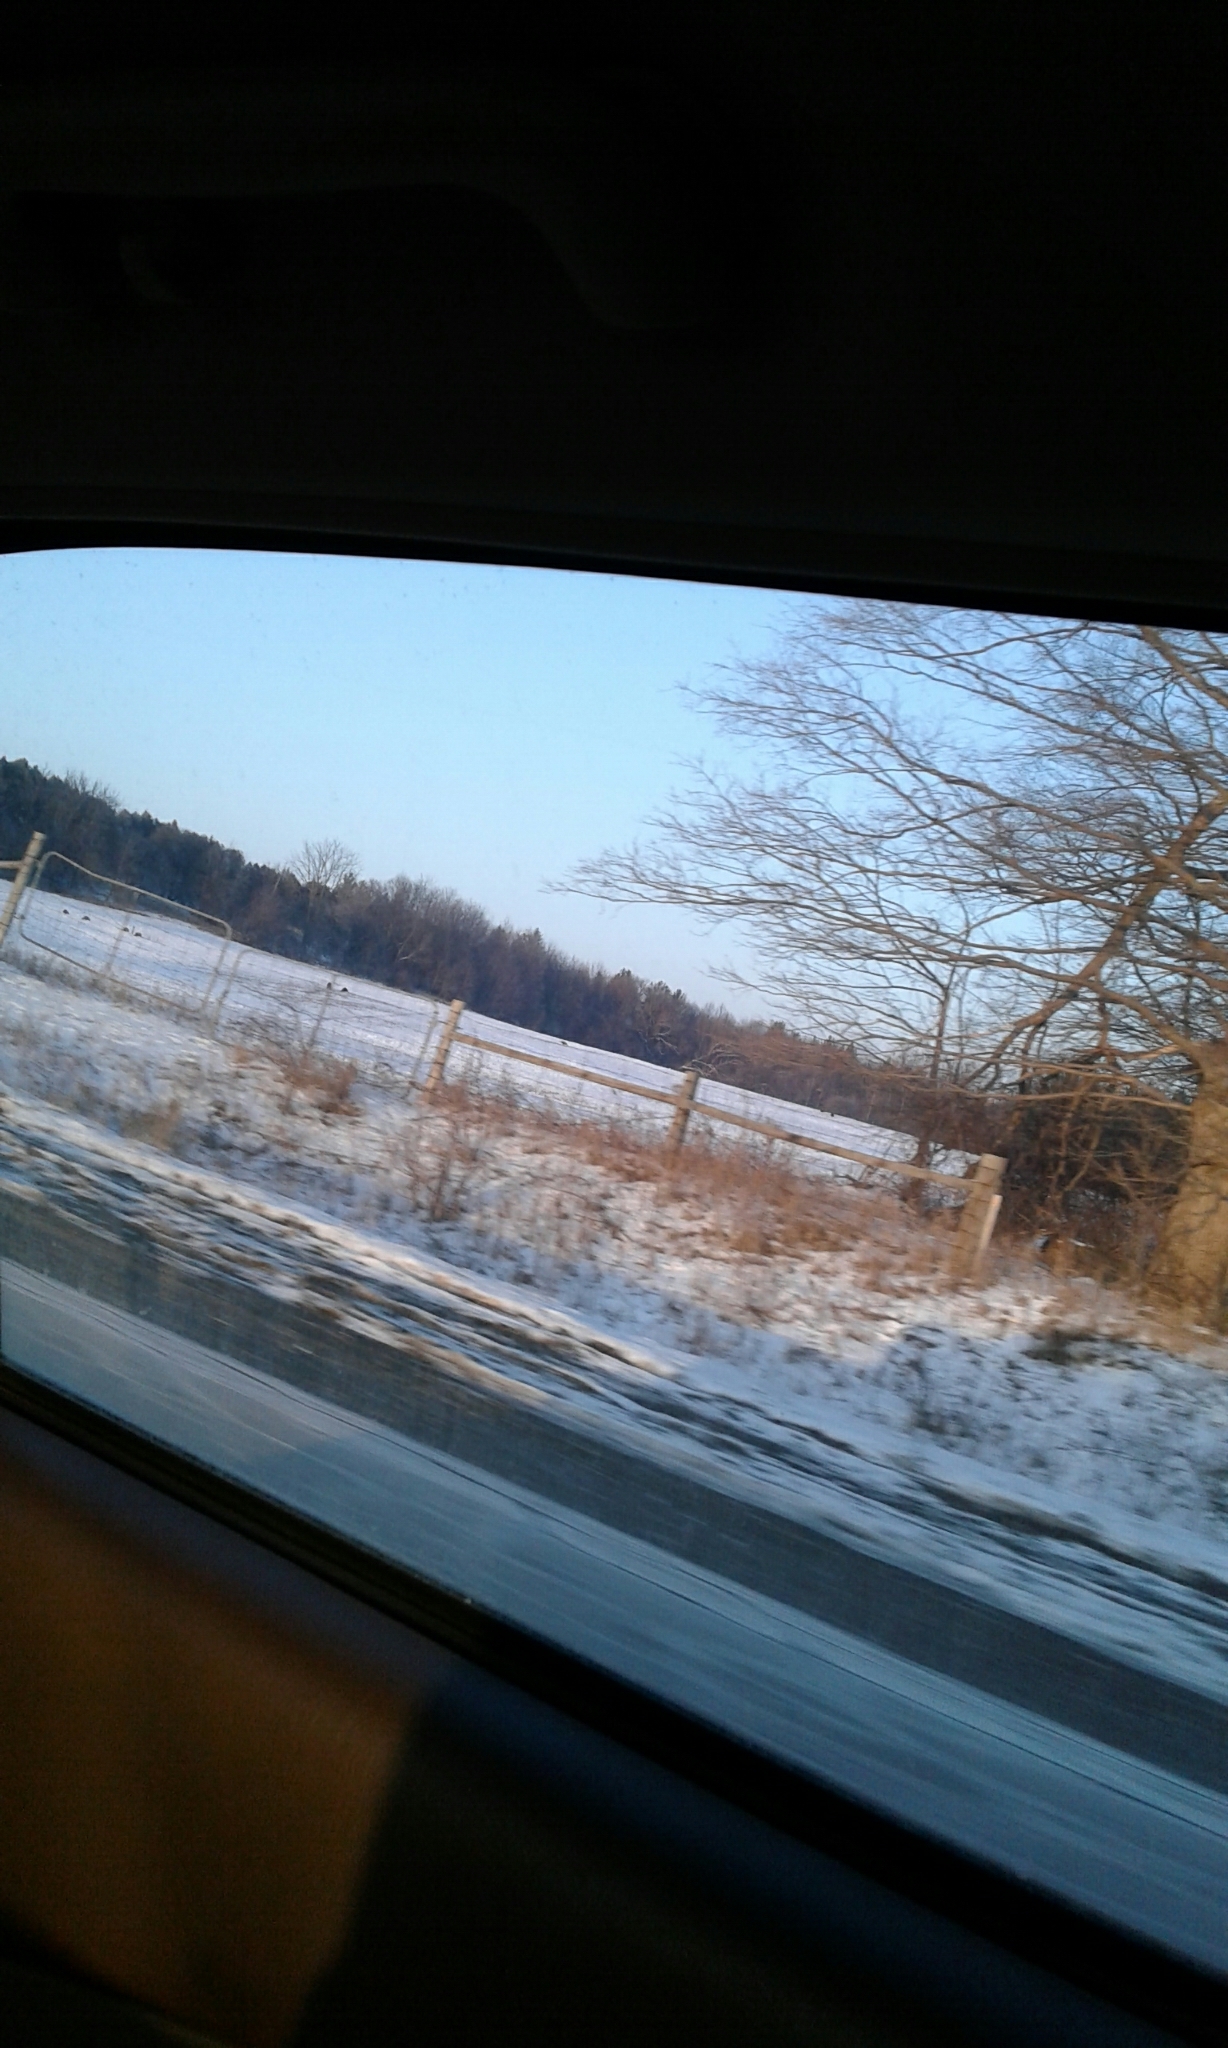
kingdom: Animalia
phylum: Chordata
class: Aves
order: Galliformes
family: Phasianidae
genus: Meleagris
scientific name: Meleagris gallopavo
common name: Wild turkey
